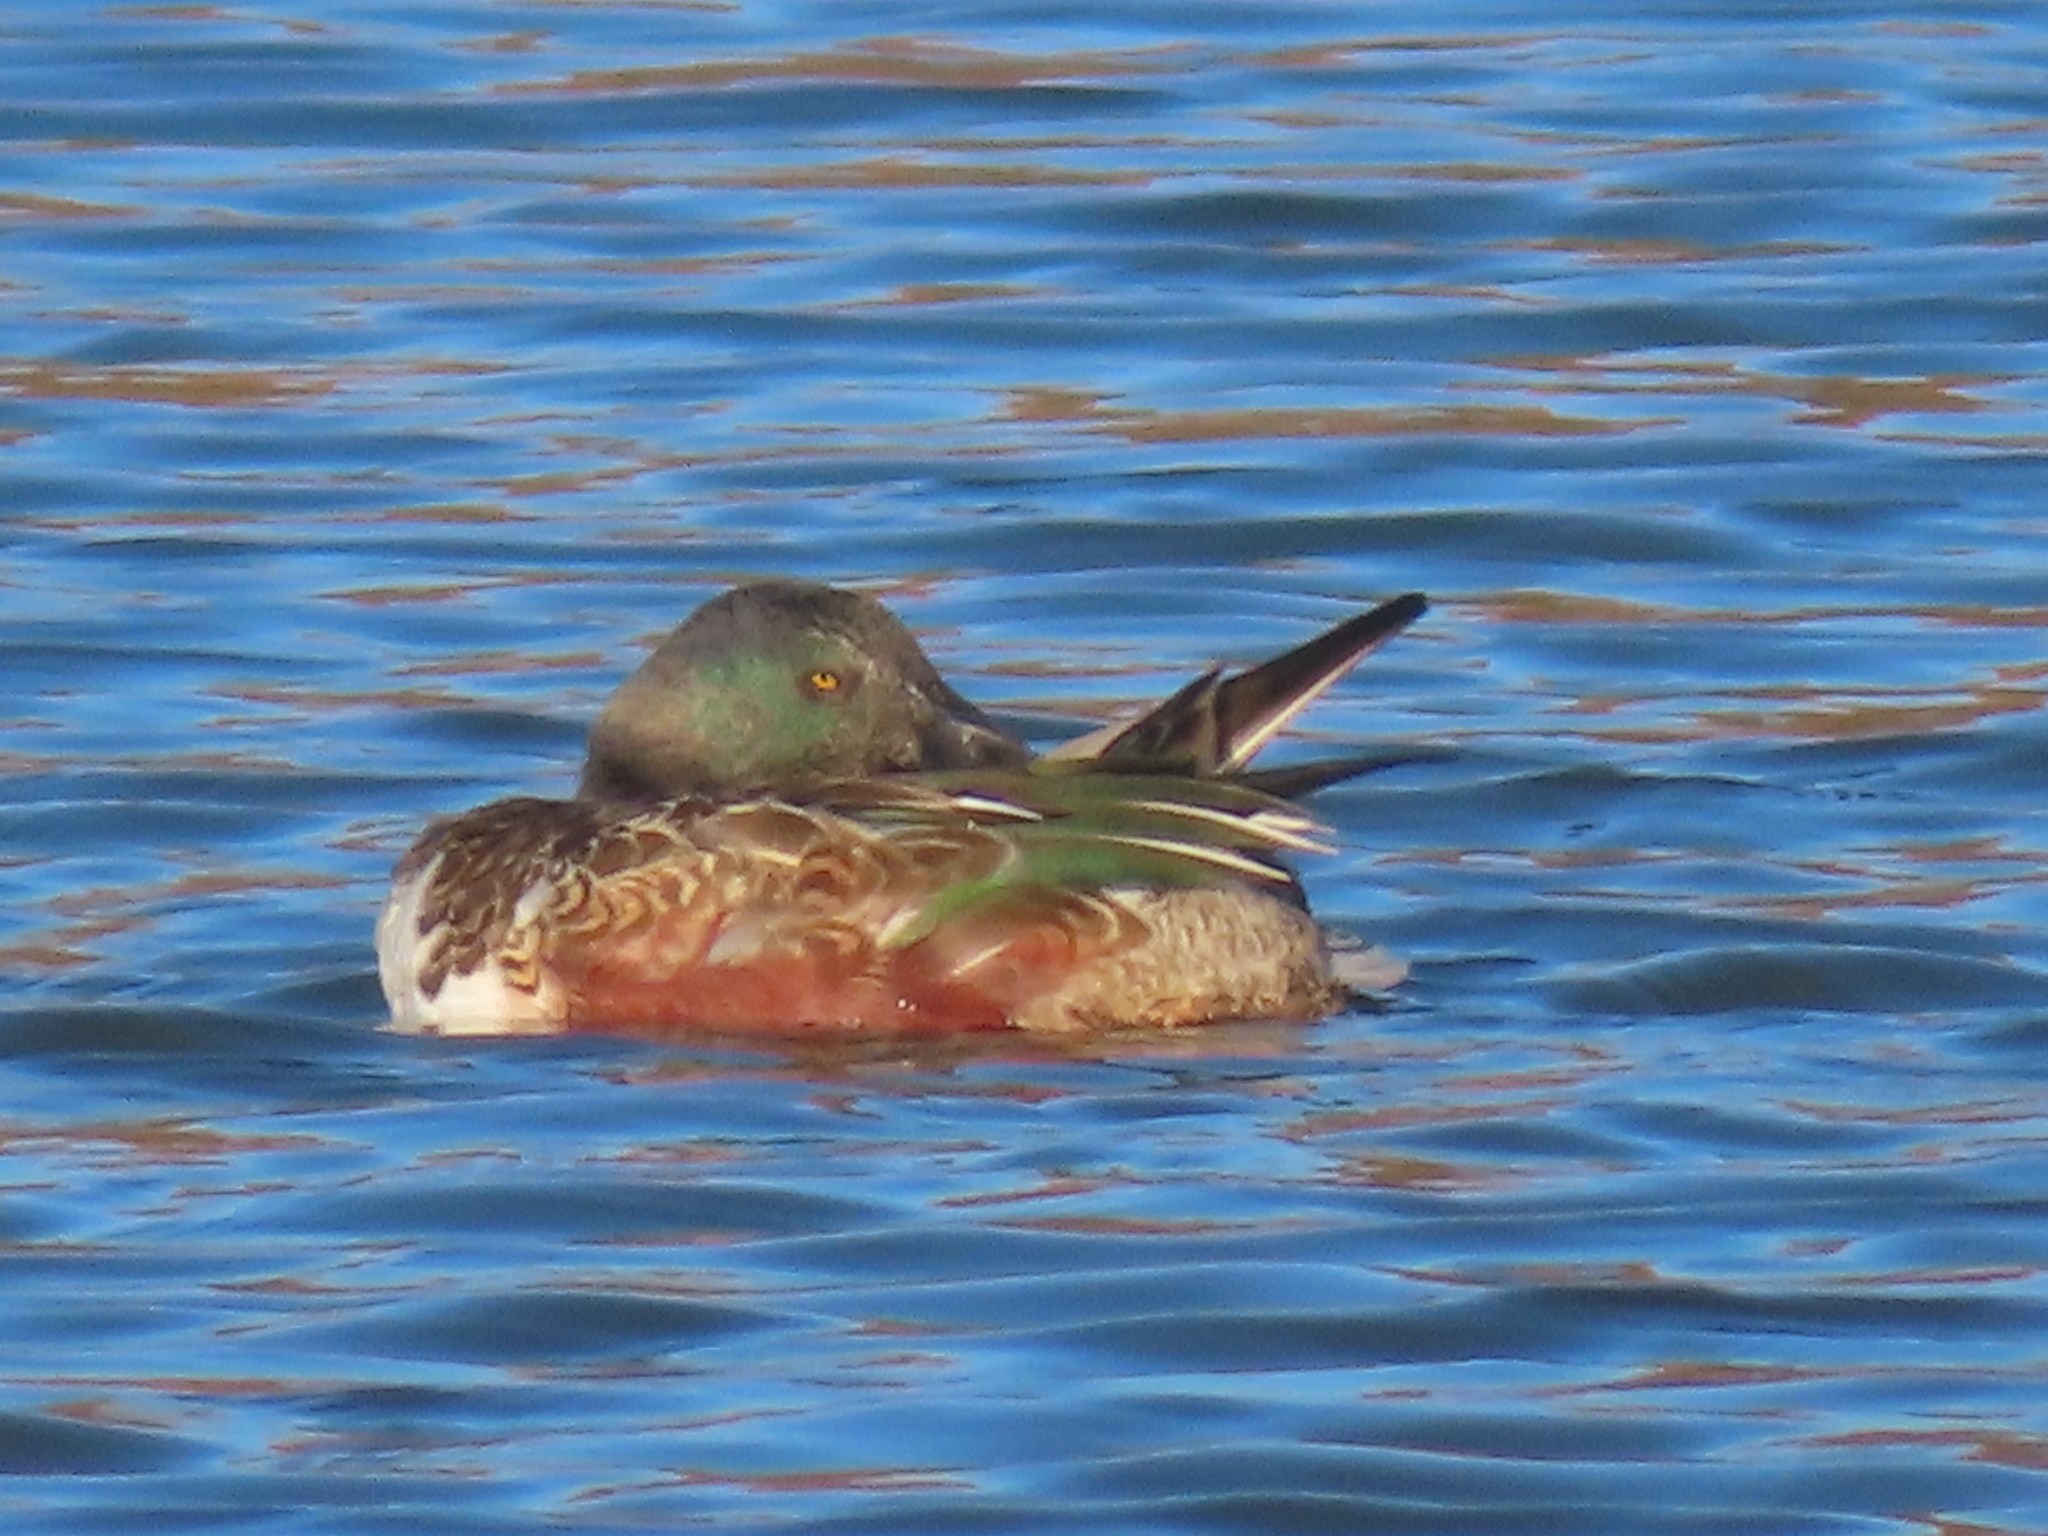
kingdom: Animalia
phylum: Chordata
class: Aves
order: Anseriformes
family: Anatidae
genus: Spatula
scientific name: Spatula clypeata
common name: Northern shoveler
